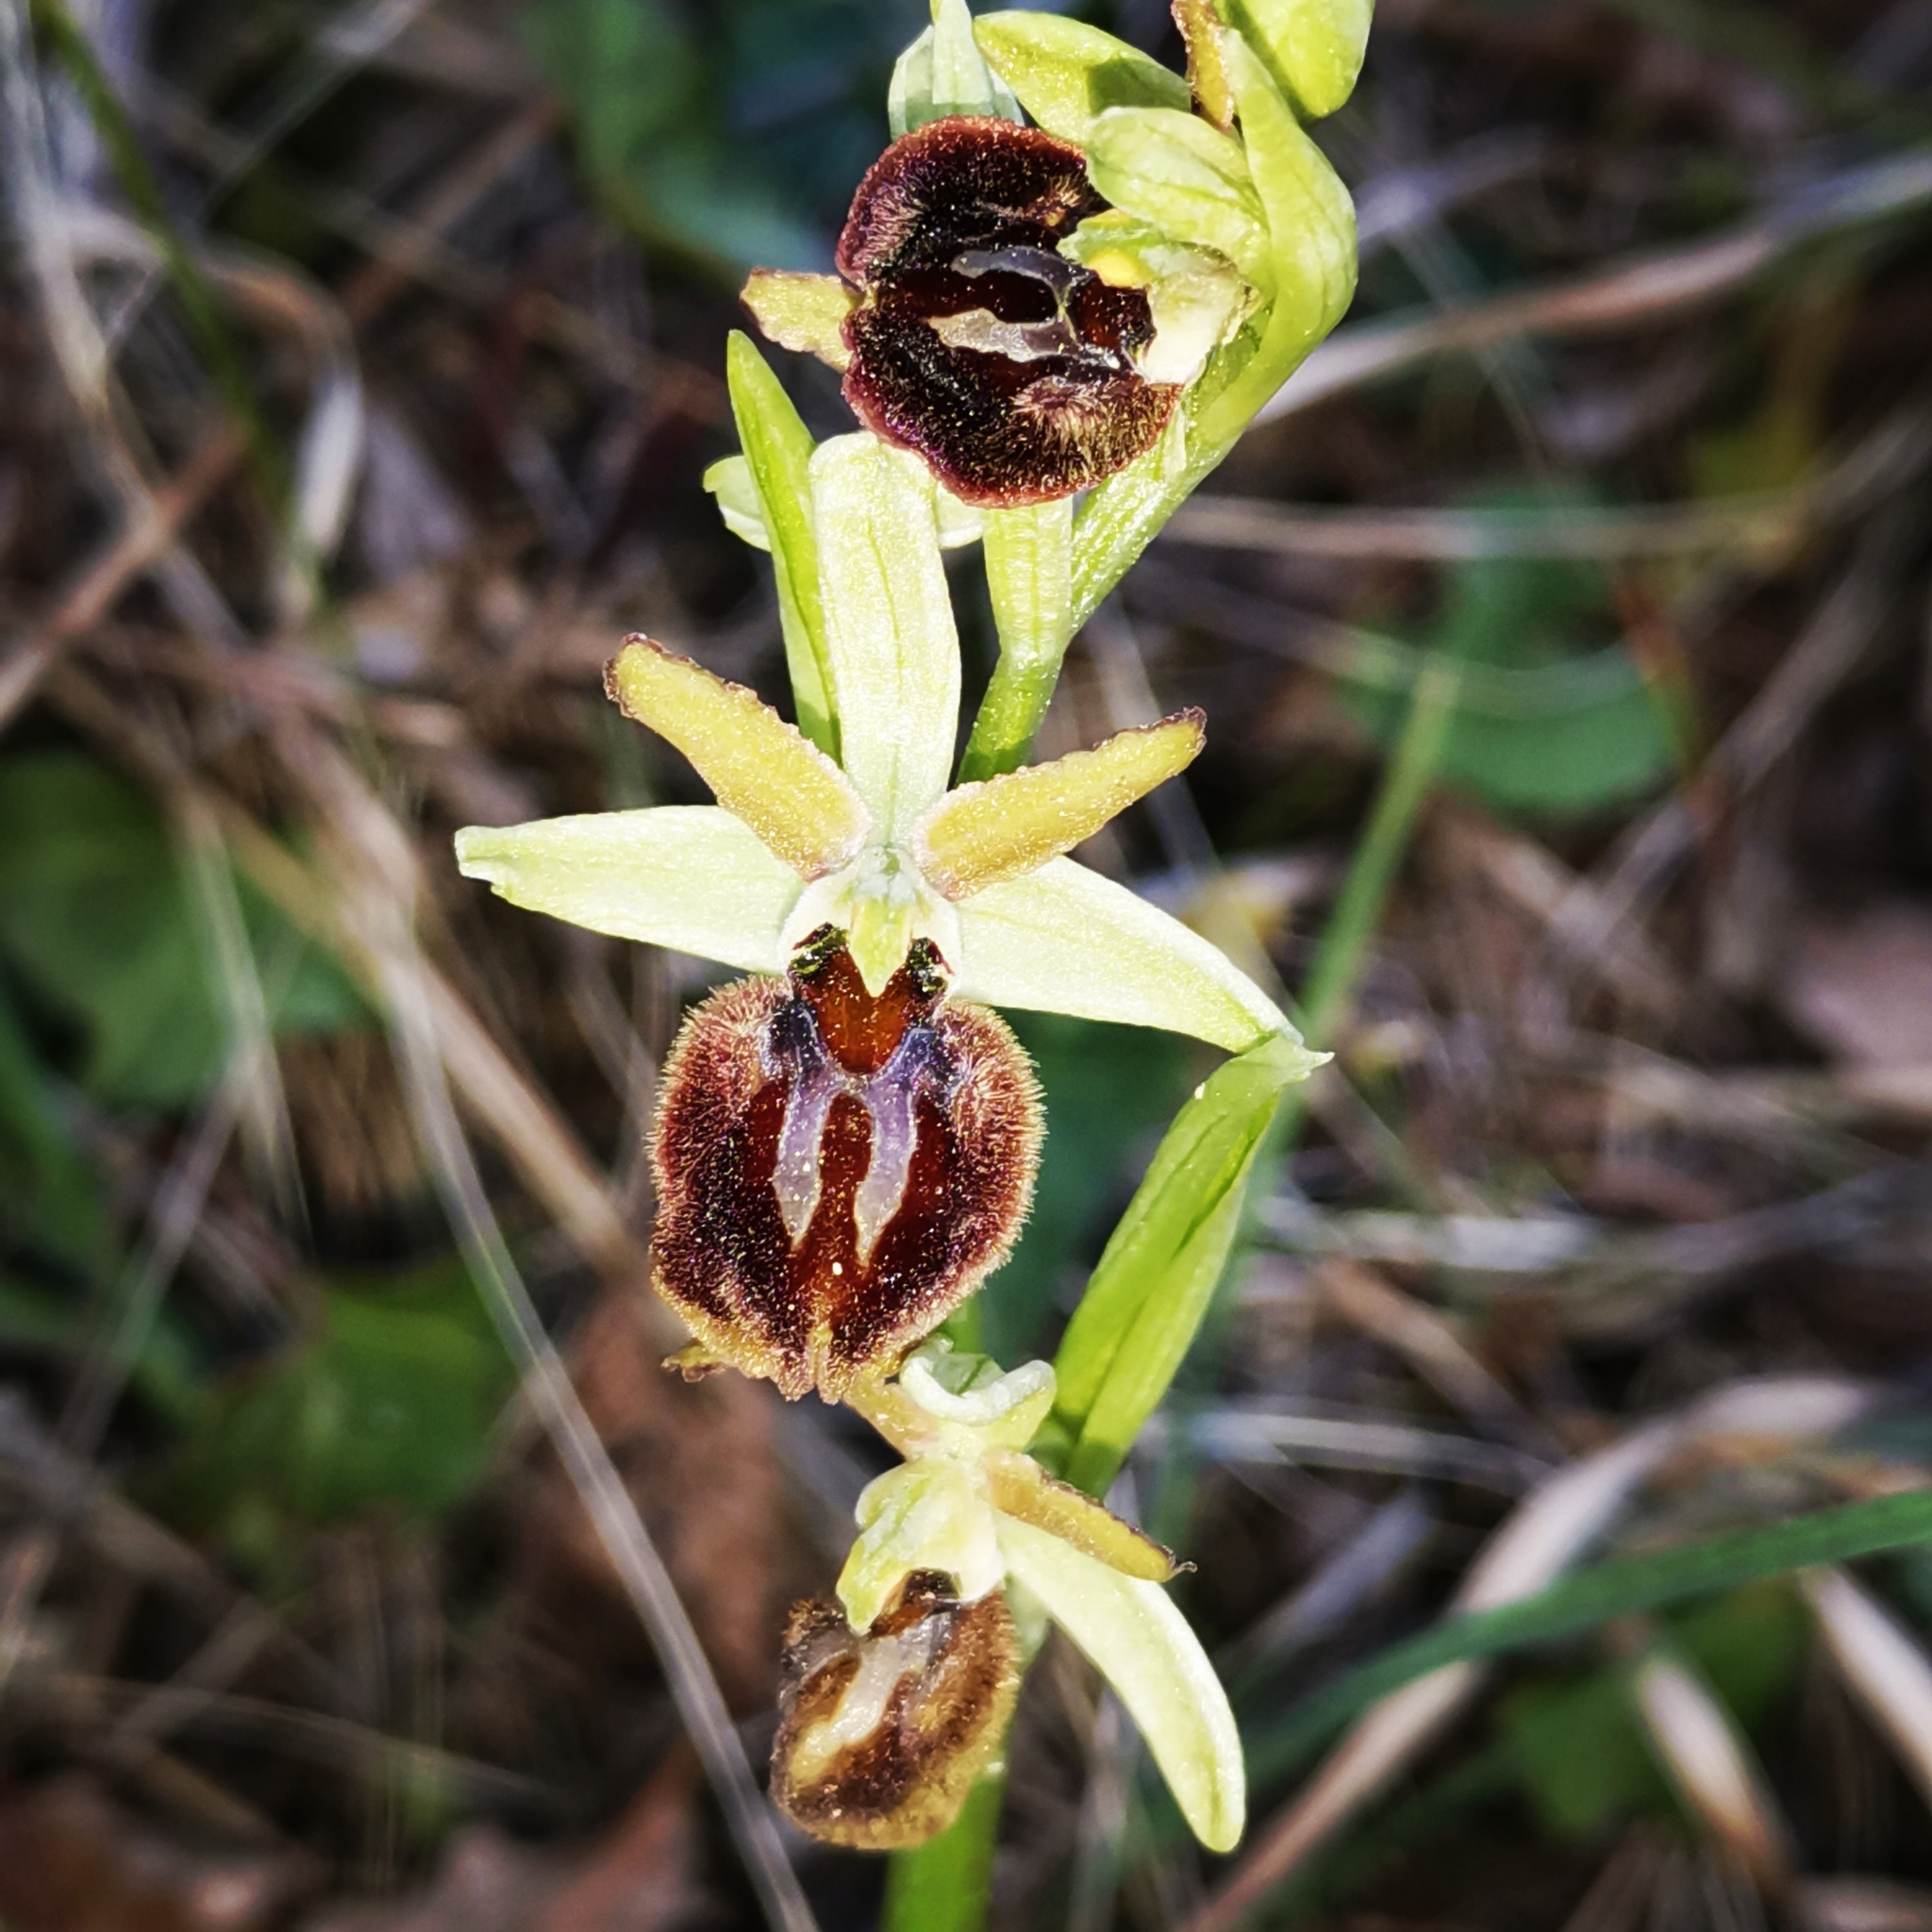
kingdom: Plantae
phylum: Tracheophyta
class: Liliopsida
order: Asparagales
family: Orchidaceae
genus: Ophrys
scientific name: Ophrys sphegodes
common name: Early spider-orchid
